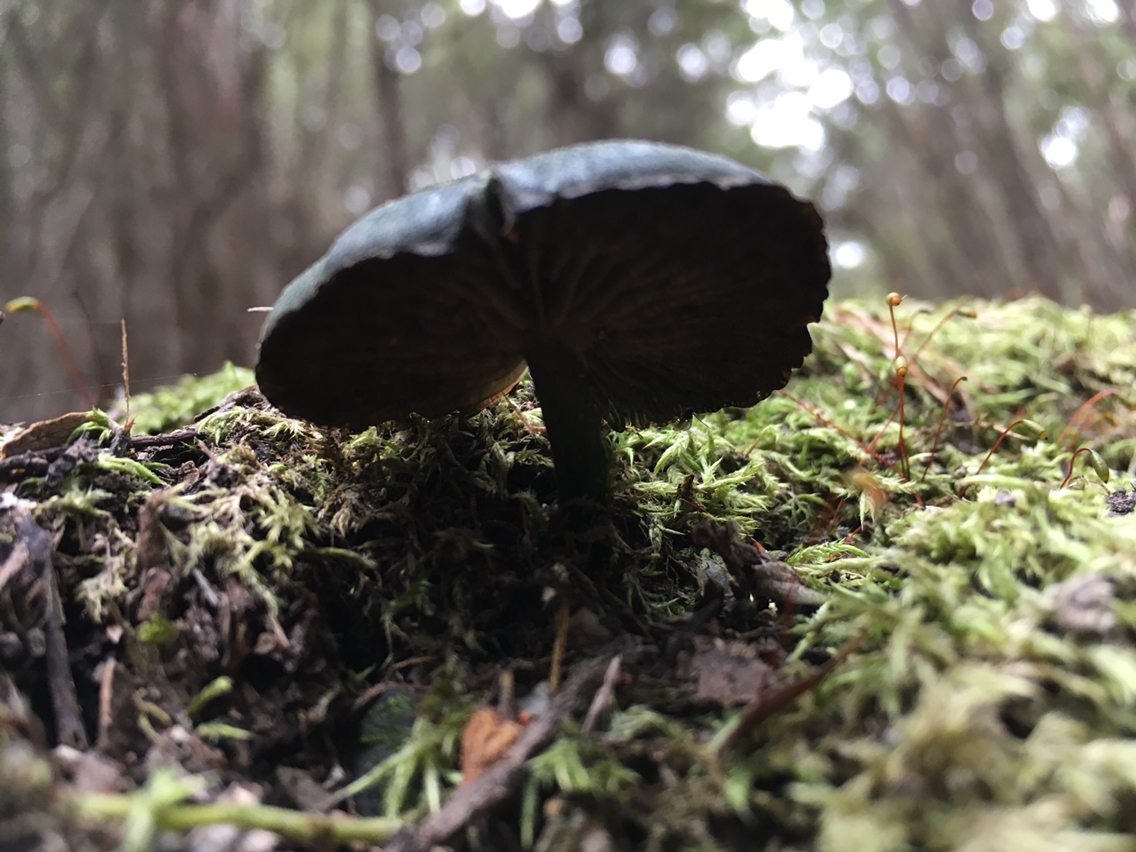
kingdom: Fungi
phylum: Basidiomycota
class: Agaricomycetes
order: Agaricales
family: Entolomataceae
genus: Entoloma
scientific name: Entoloma viridomarginatum
